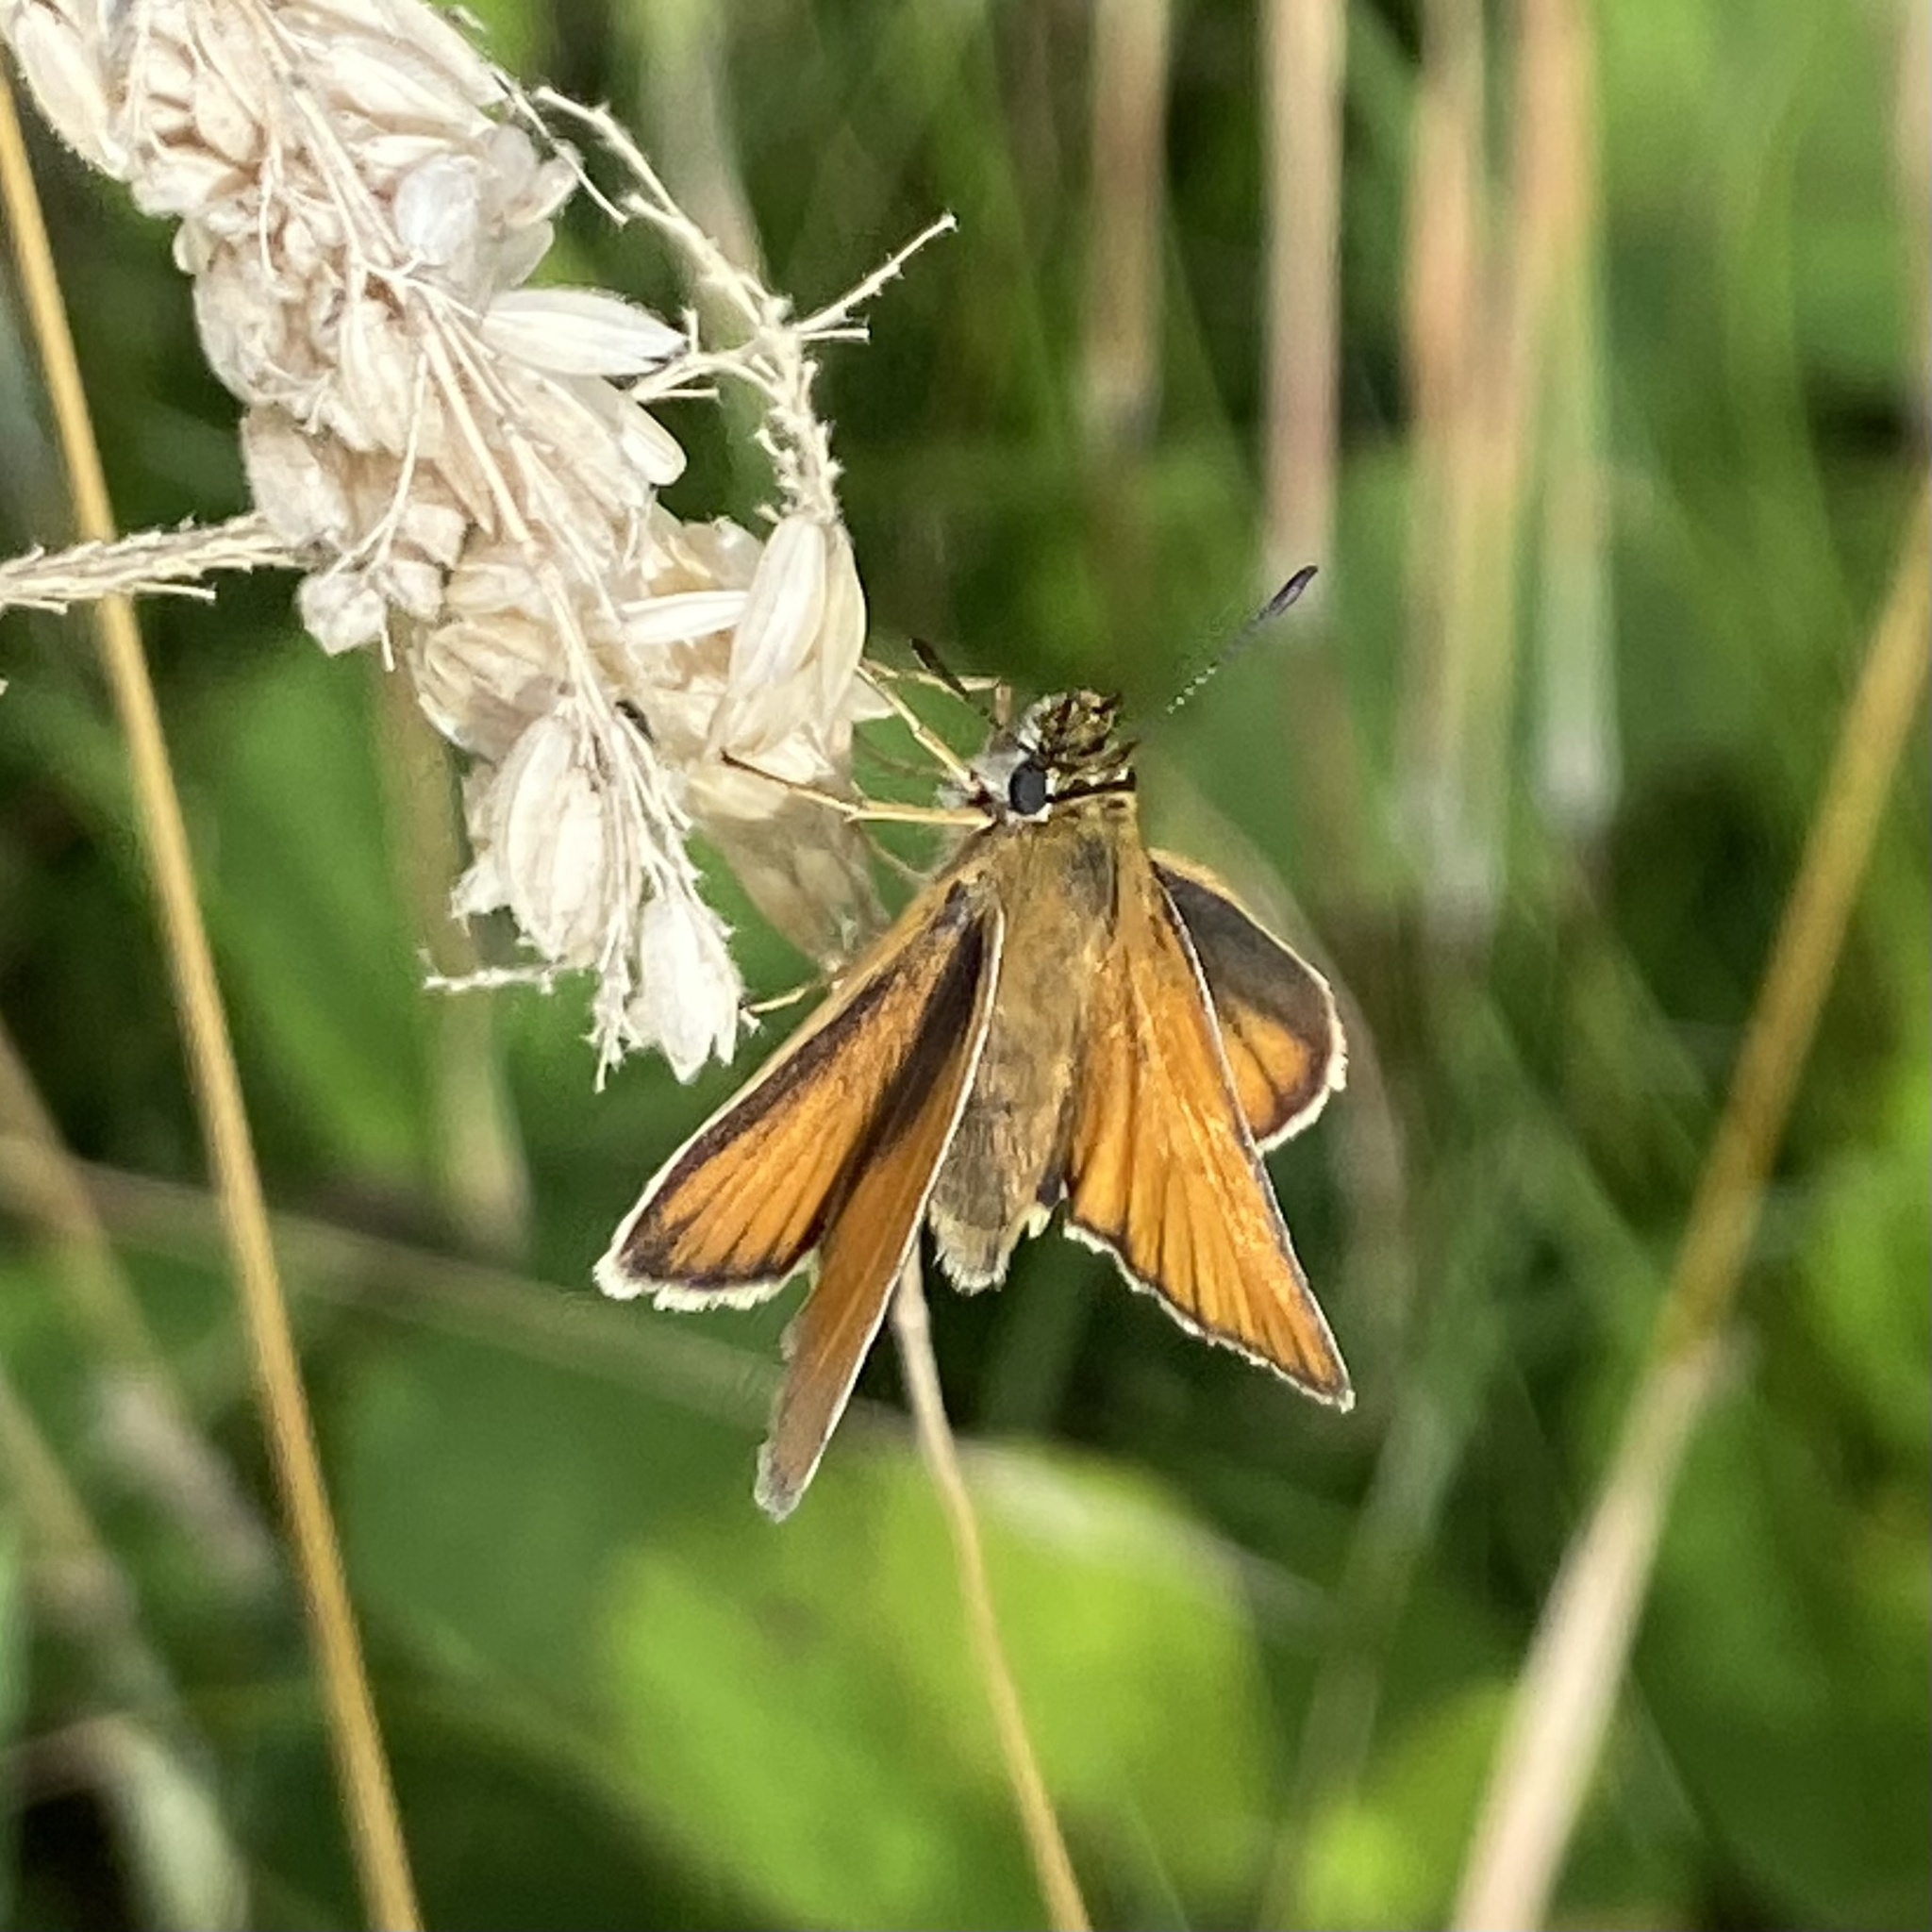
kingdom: Animalia
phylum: Arthropoda
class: Insecta
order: Lepidoptera
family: Hesperiidae
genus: Thymelicus
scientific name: Thymelicus lineola
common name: Essex skipper
